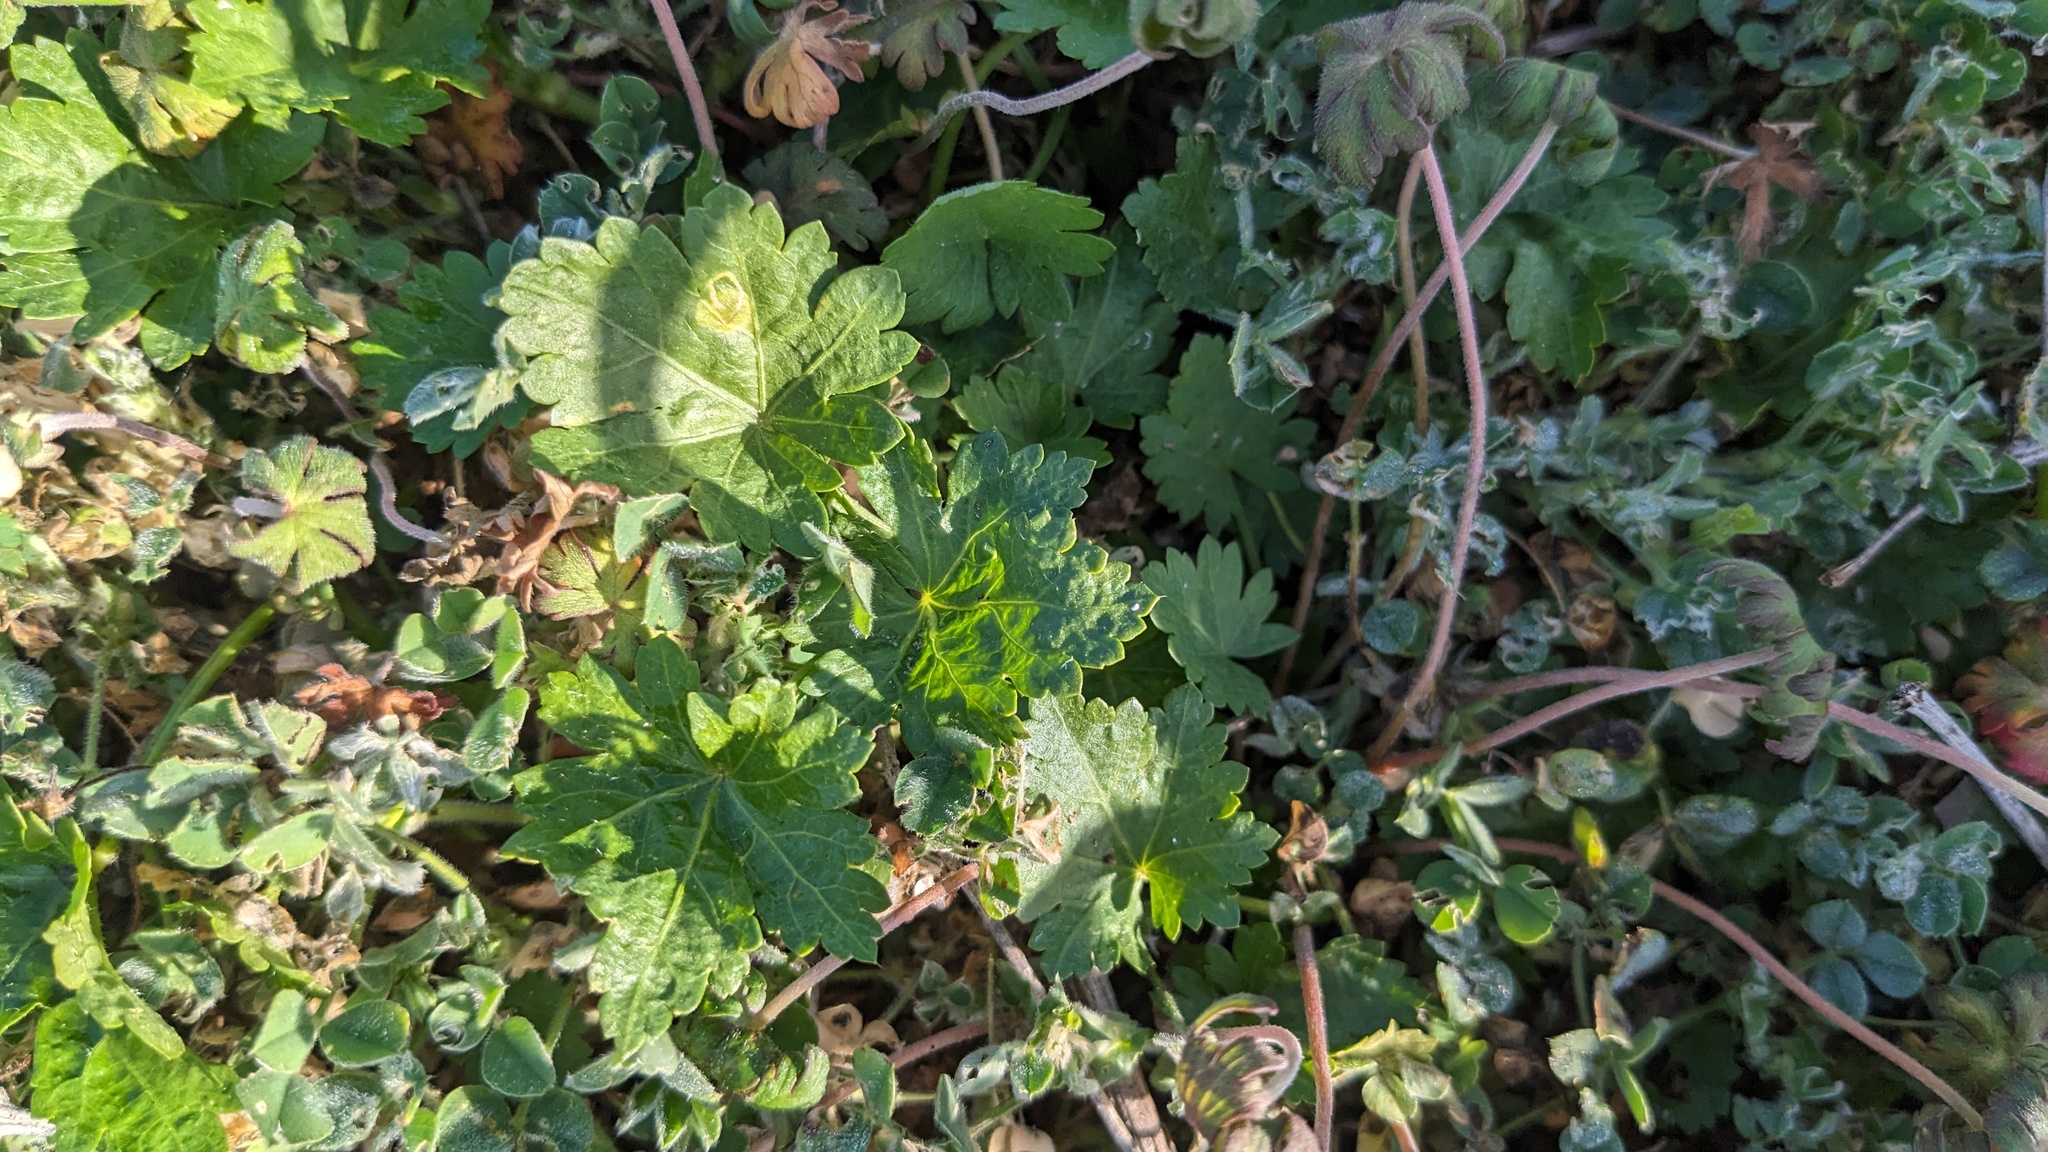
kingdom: Plantae
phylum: Tracheophyta
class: Magnoliopsida
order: Malvales
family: Malvaceae
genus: Modiola
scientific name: Modiola caroliniana
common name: Carolina bristlemallow
